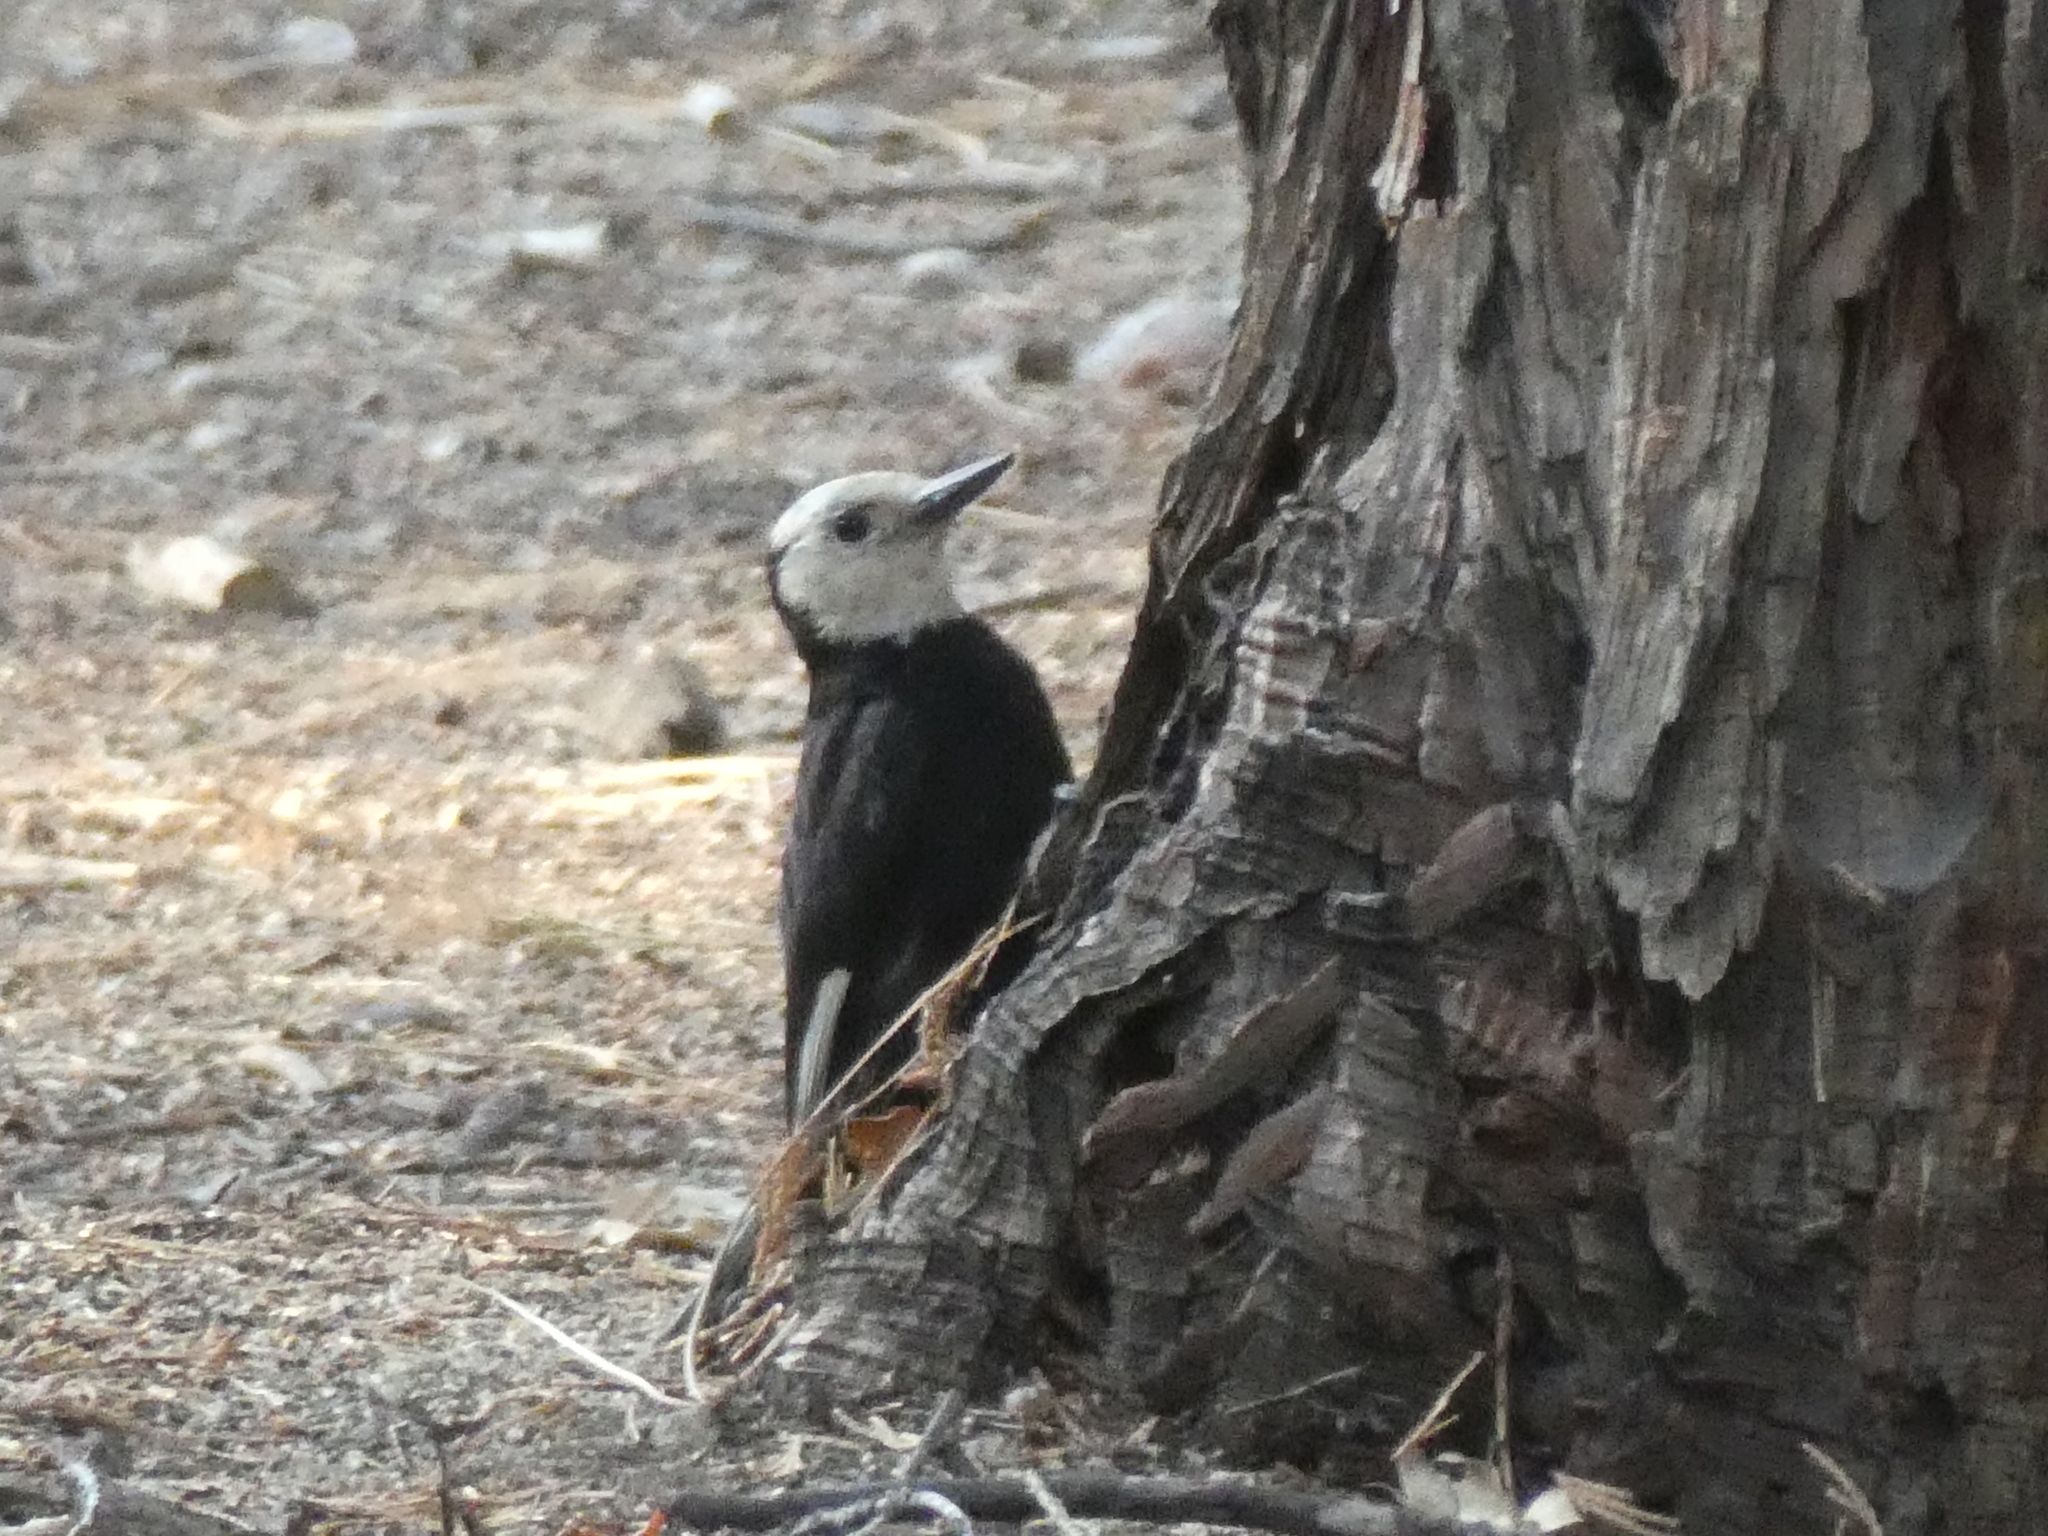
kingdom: Animalia
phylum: Chordata
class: Aves
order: Piciformes
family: Picidae
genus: Leuconotopicus
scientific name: Leuconotopicus albolarvatus
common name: White-headed woodpecker
